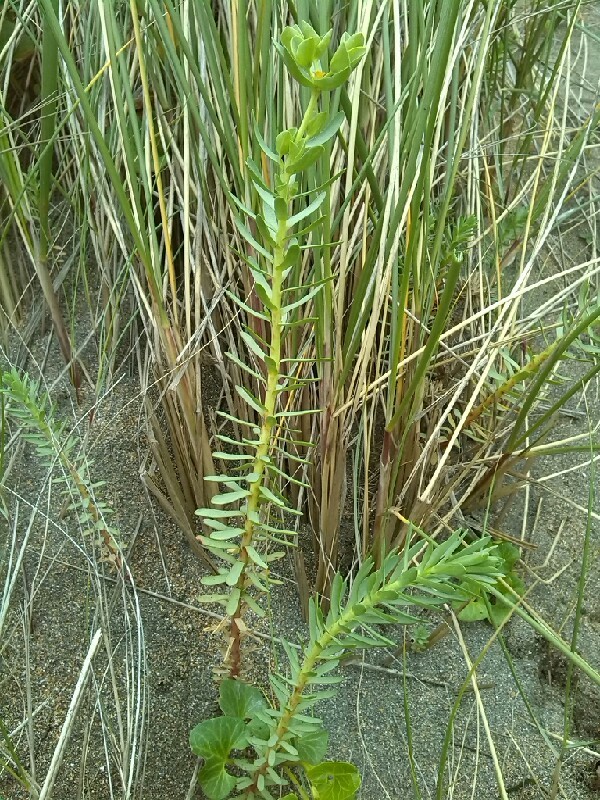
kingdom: Plantae
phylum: Tracheophyta
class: Magnoliopsida
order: Malpighiales
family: Euphorbiaceae
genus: Euphorbia
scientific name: Euphorbia paralias
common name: Sea spurge
